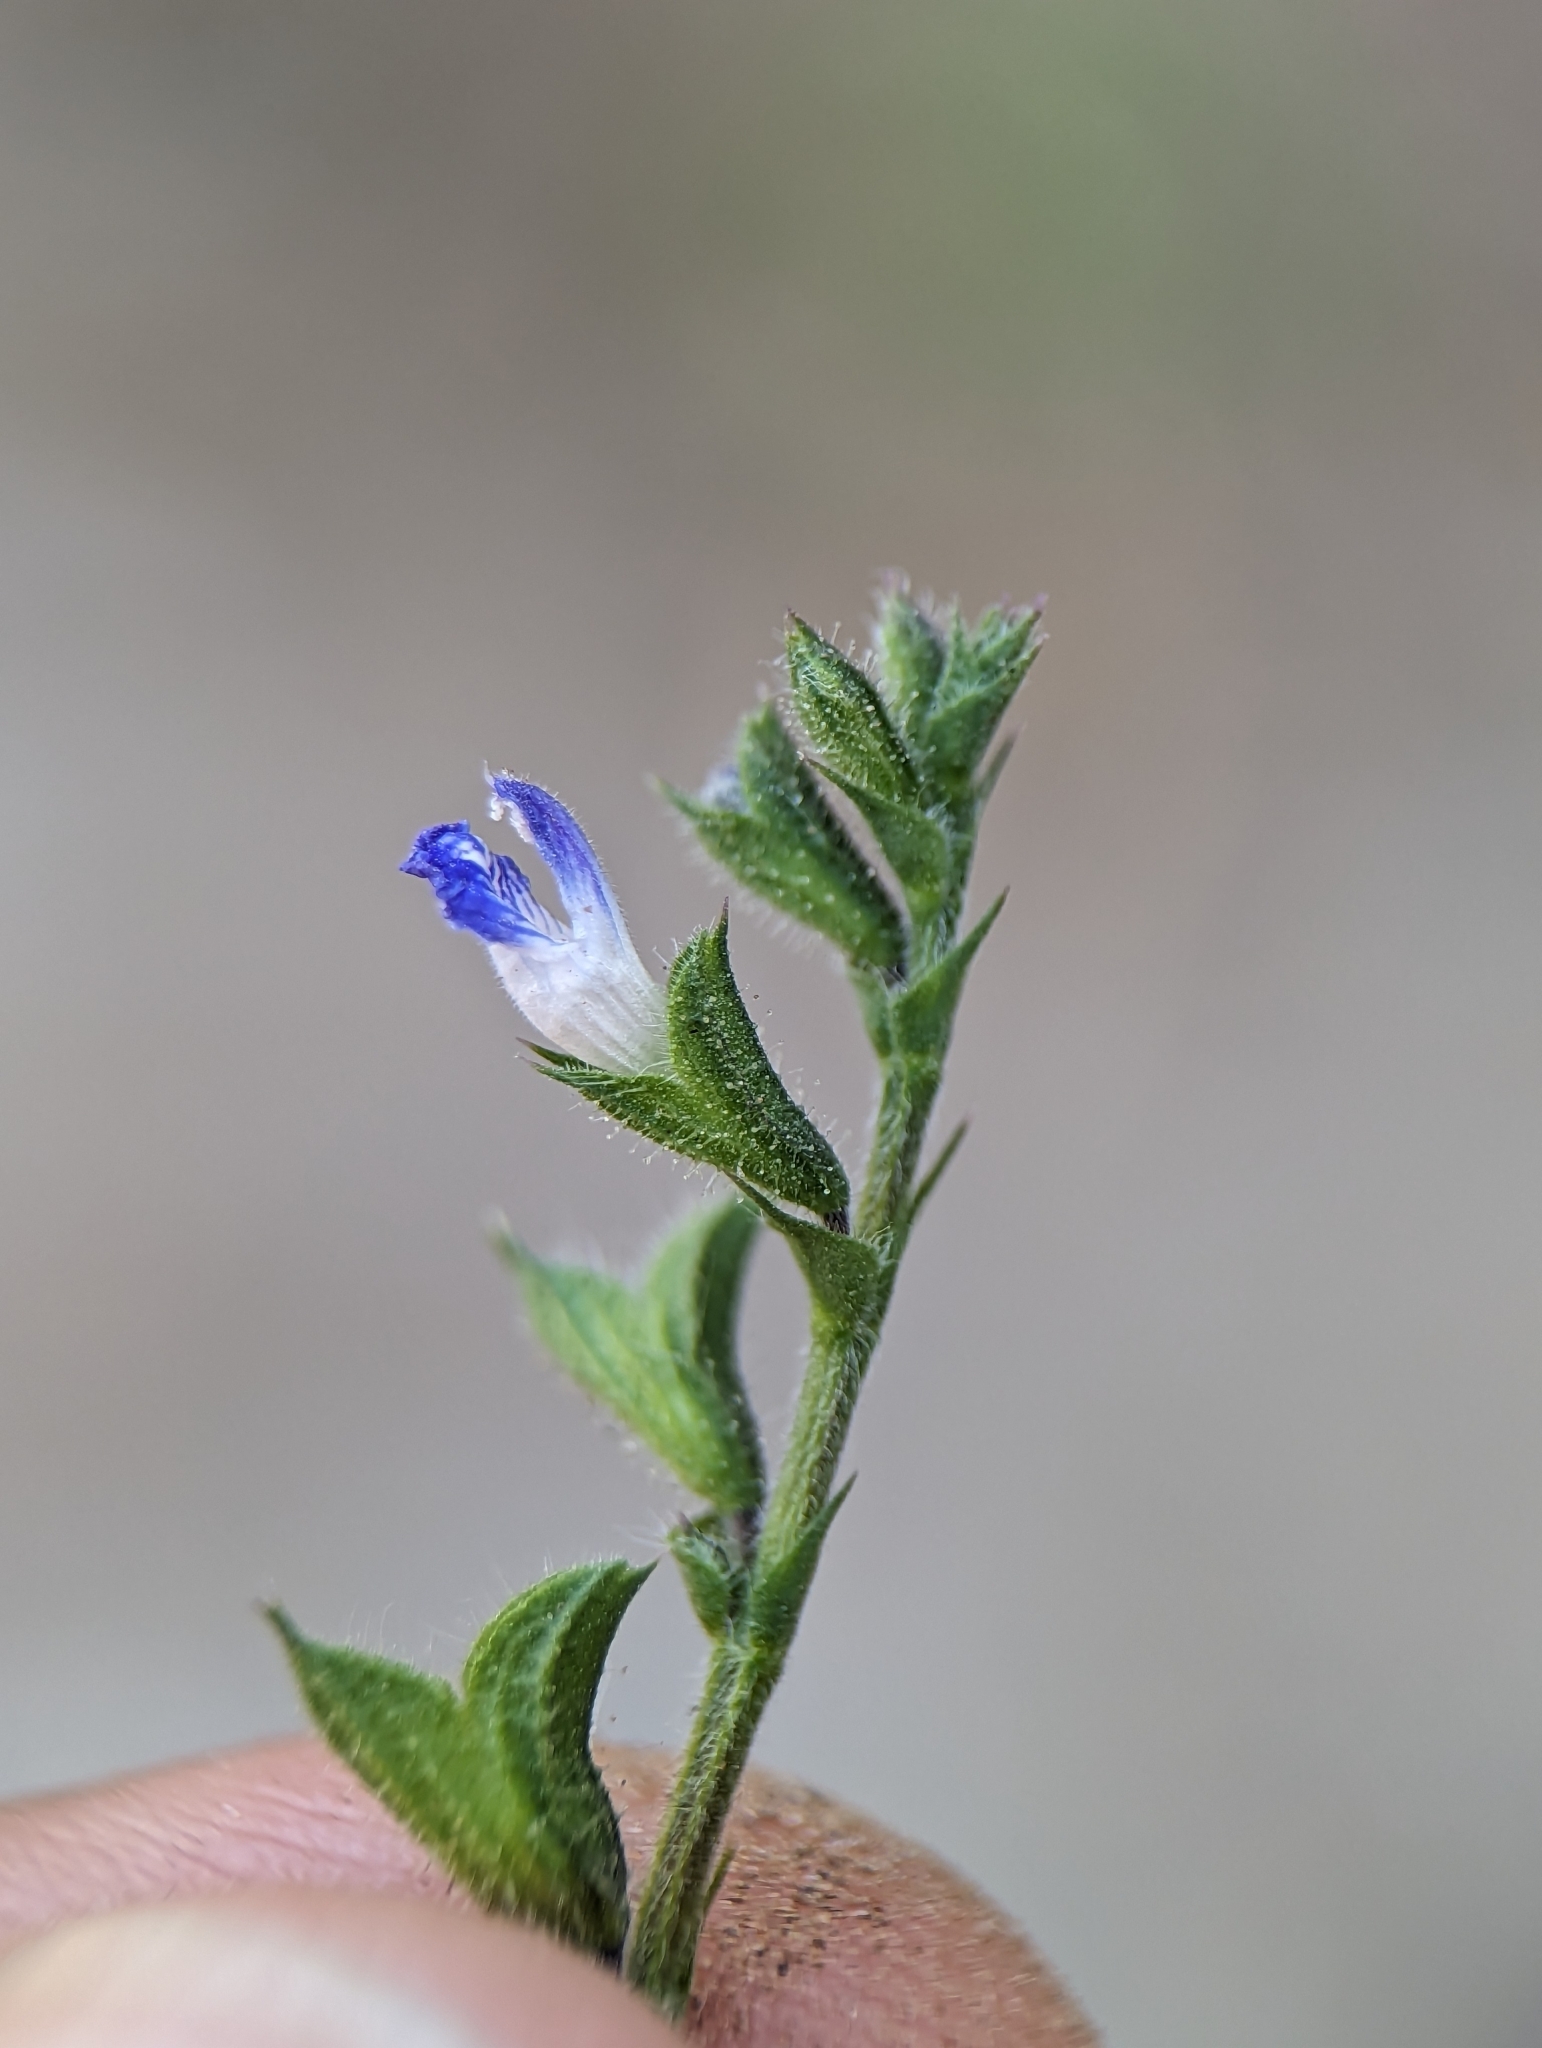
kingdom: Plantae
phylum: Tracheophyta
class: Magnoliopsida
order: Lamiales
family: Lamiaceae
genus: Salvia
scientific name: Salvia misella
